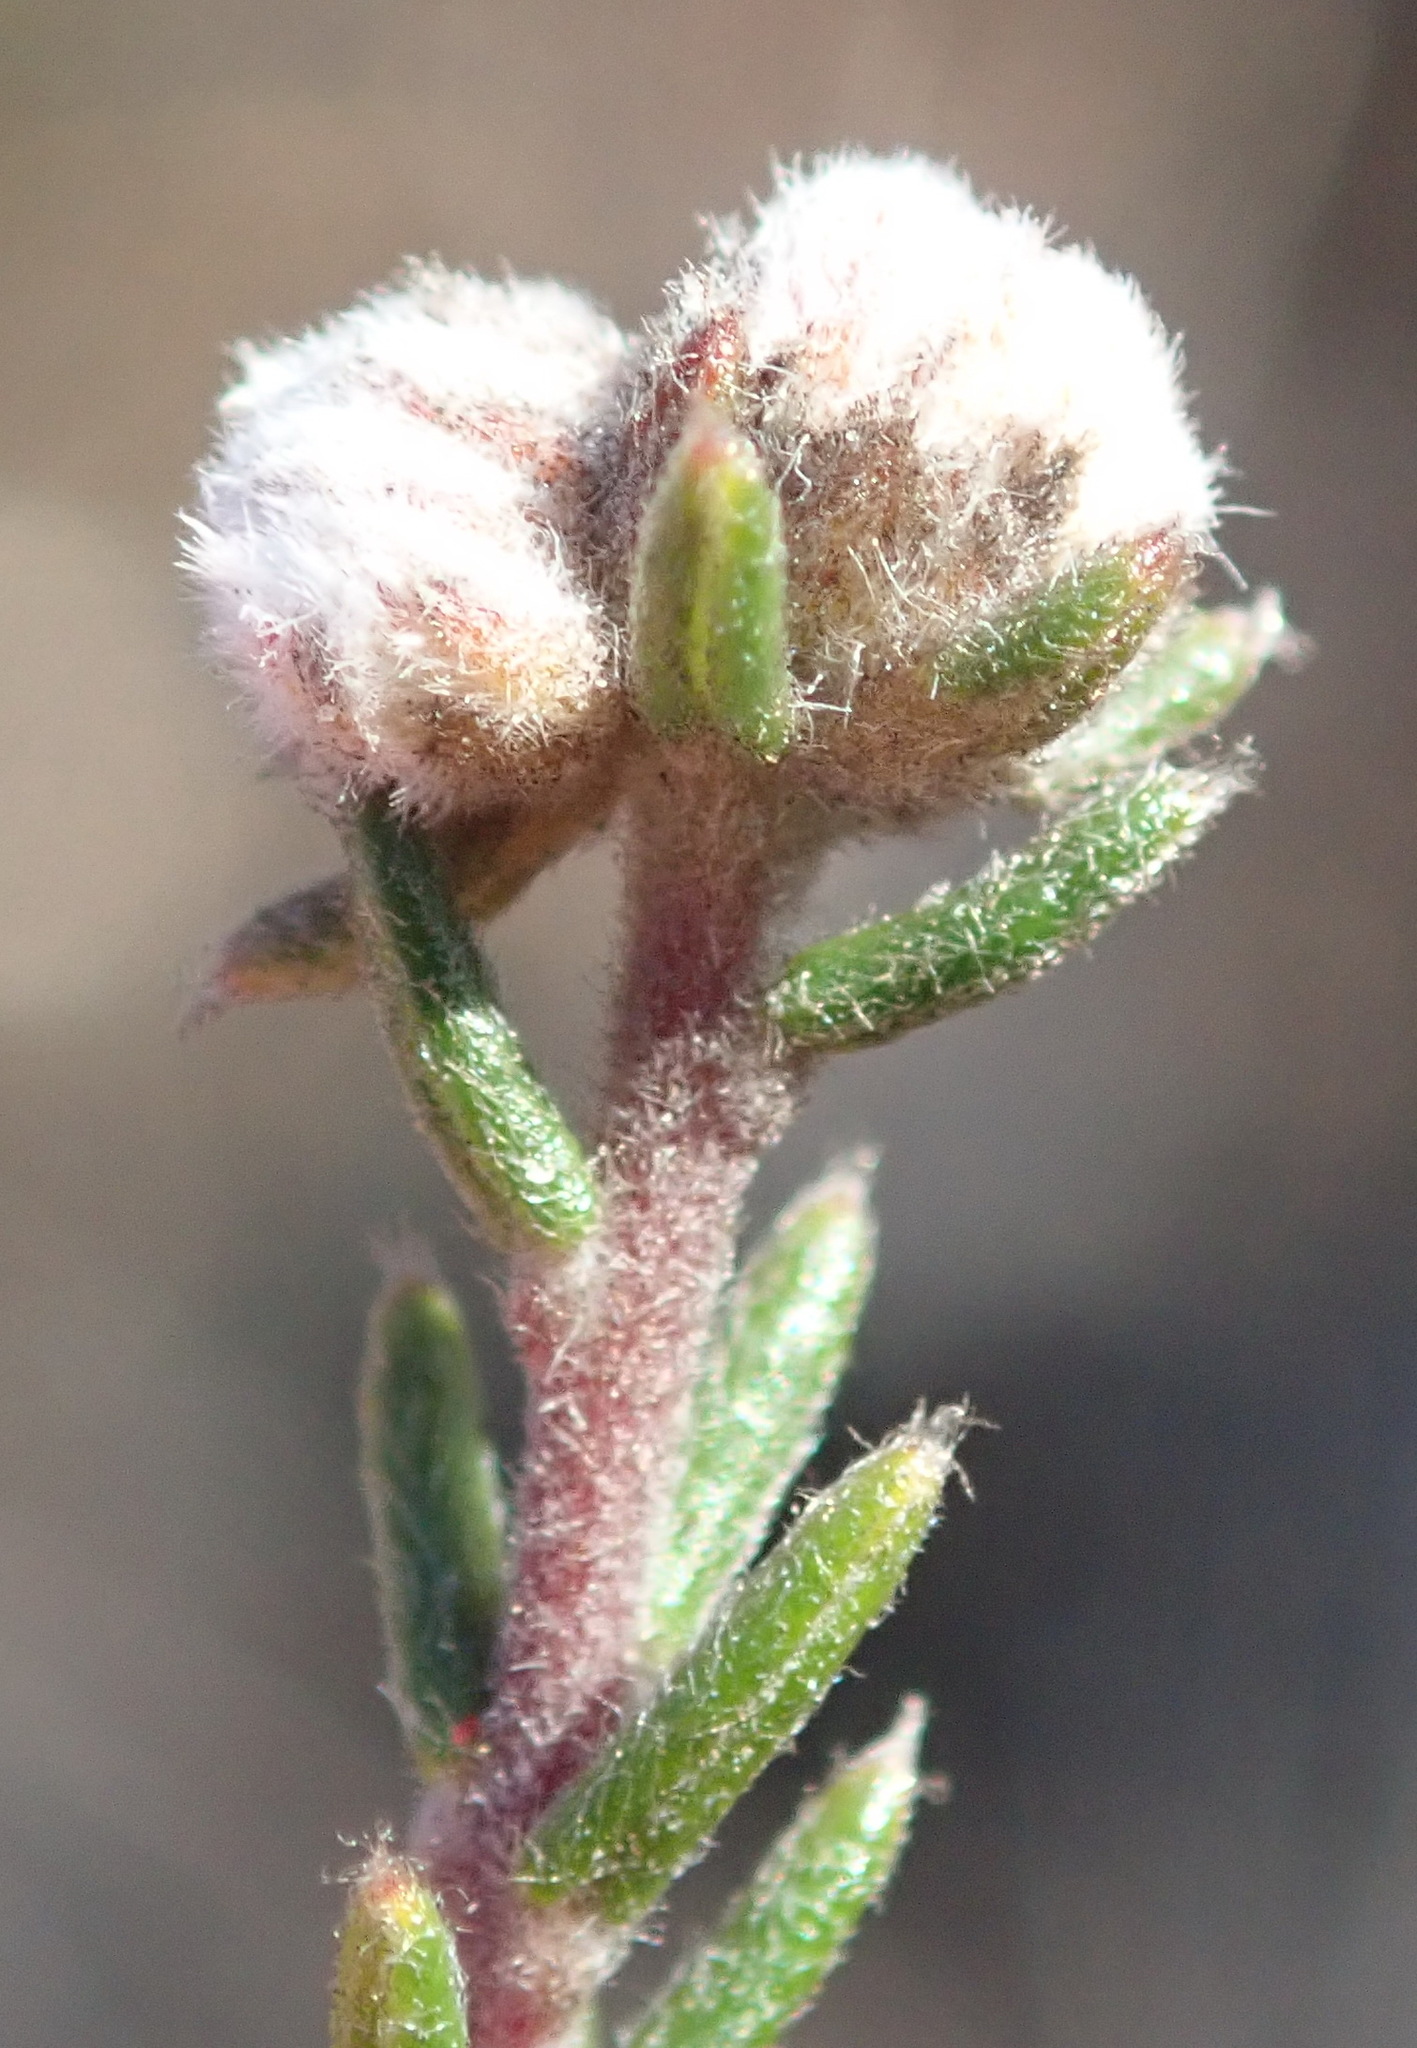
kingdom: Plantae
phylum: Tracheophyta
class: Magnoliopsida
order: Rosales
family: Rhamnaceae
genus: Phylica
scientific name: Phylica karroica
